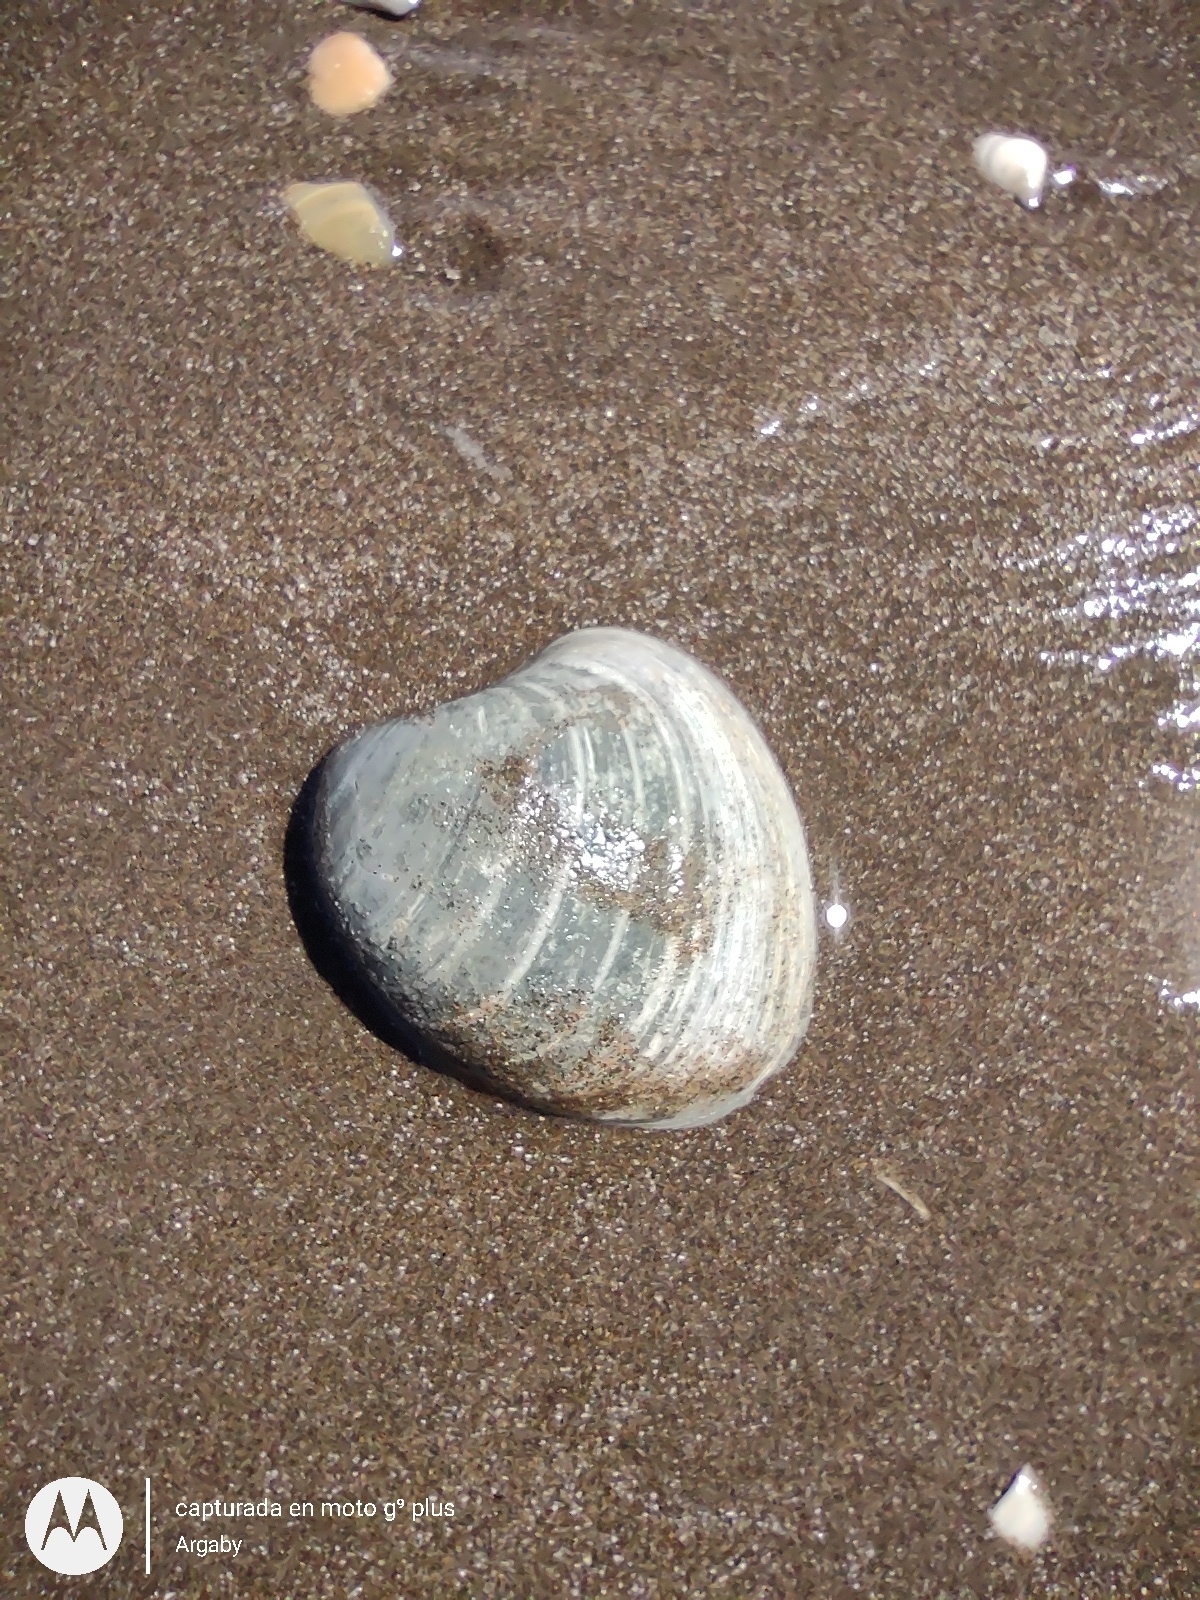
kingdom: Animalia
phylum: Mollusca
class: Bivalvia
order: Venerida
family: Veneridae
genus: Proteopitar
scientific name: Proteopitar patagonicus
